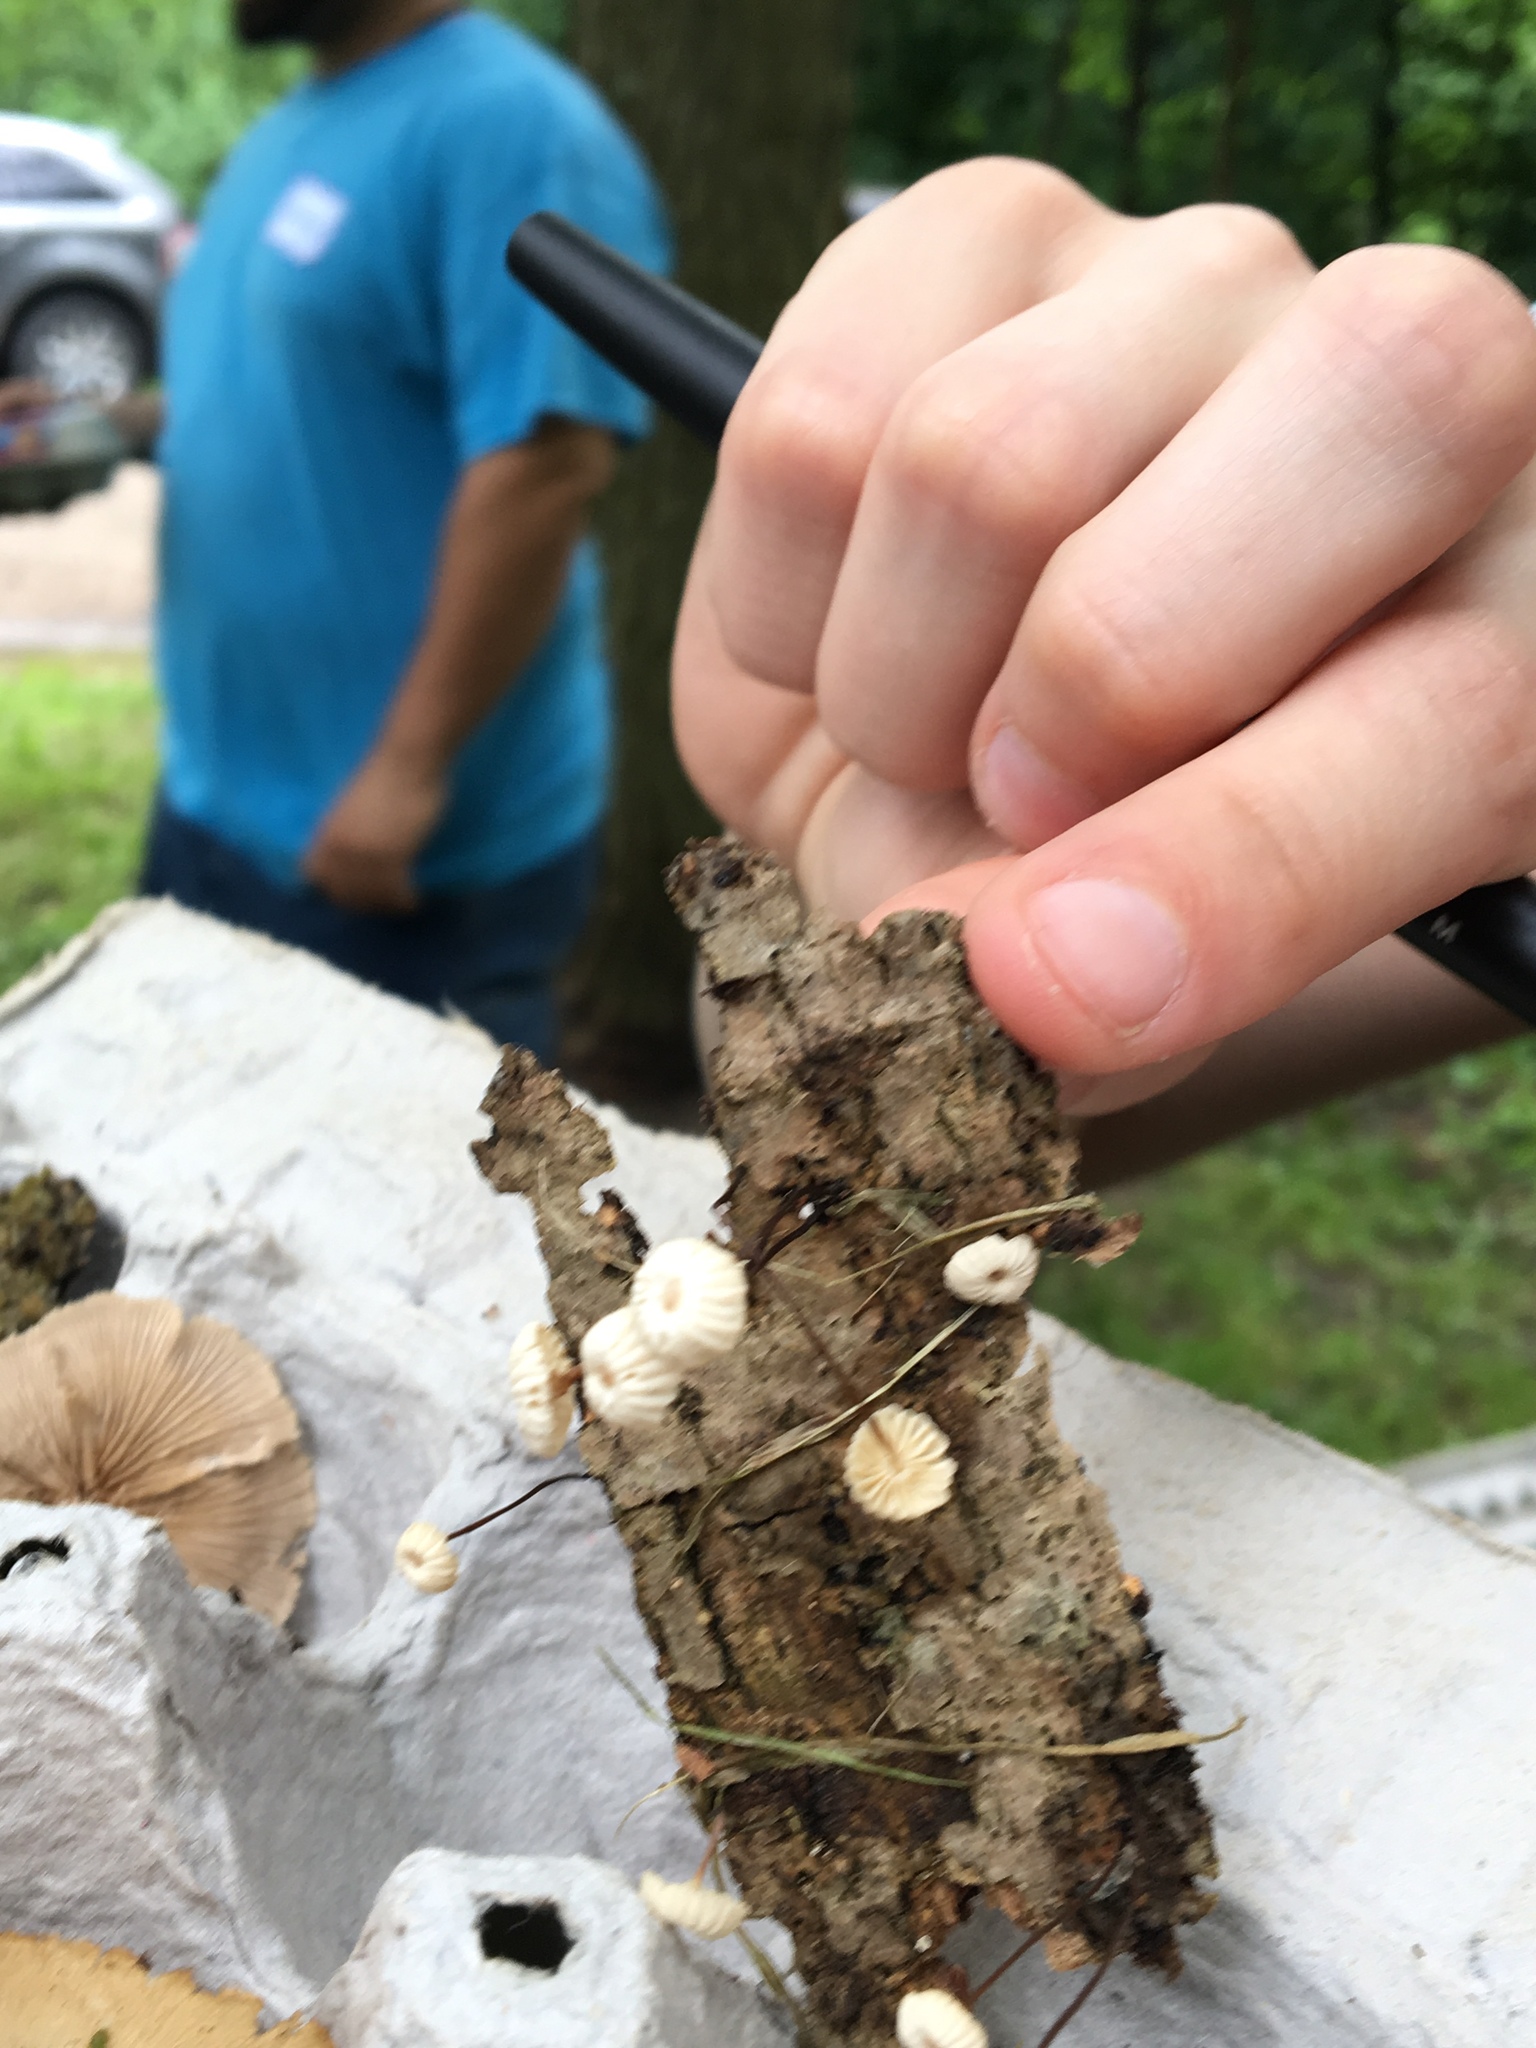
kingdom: Fungi
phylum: Basidiomycota
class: Agaricomycetes
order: Agaricales
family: Marasmiaceae
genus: Marasmius
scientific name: Marasmius rotula
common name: Collared parachute
